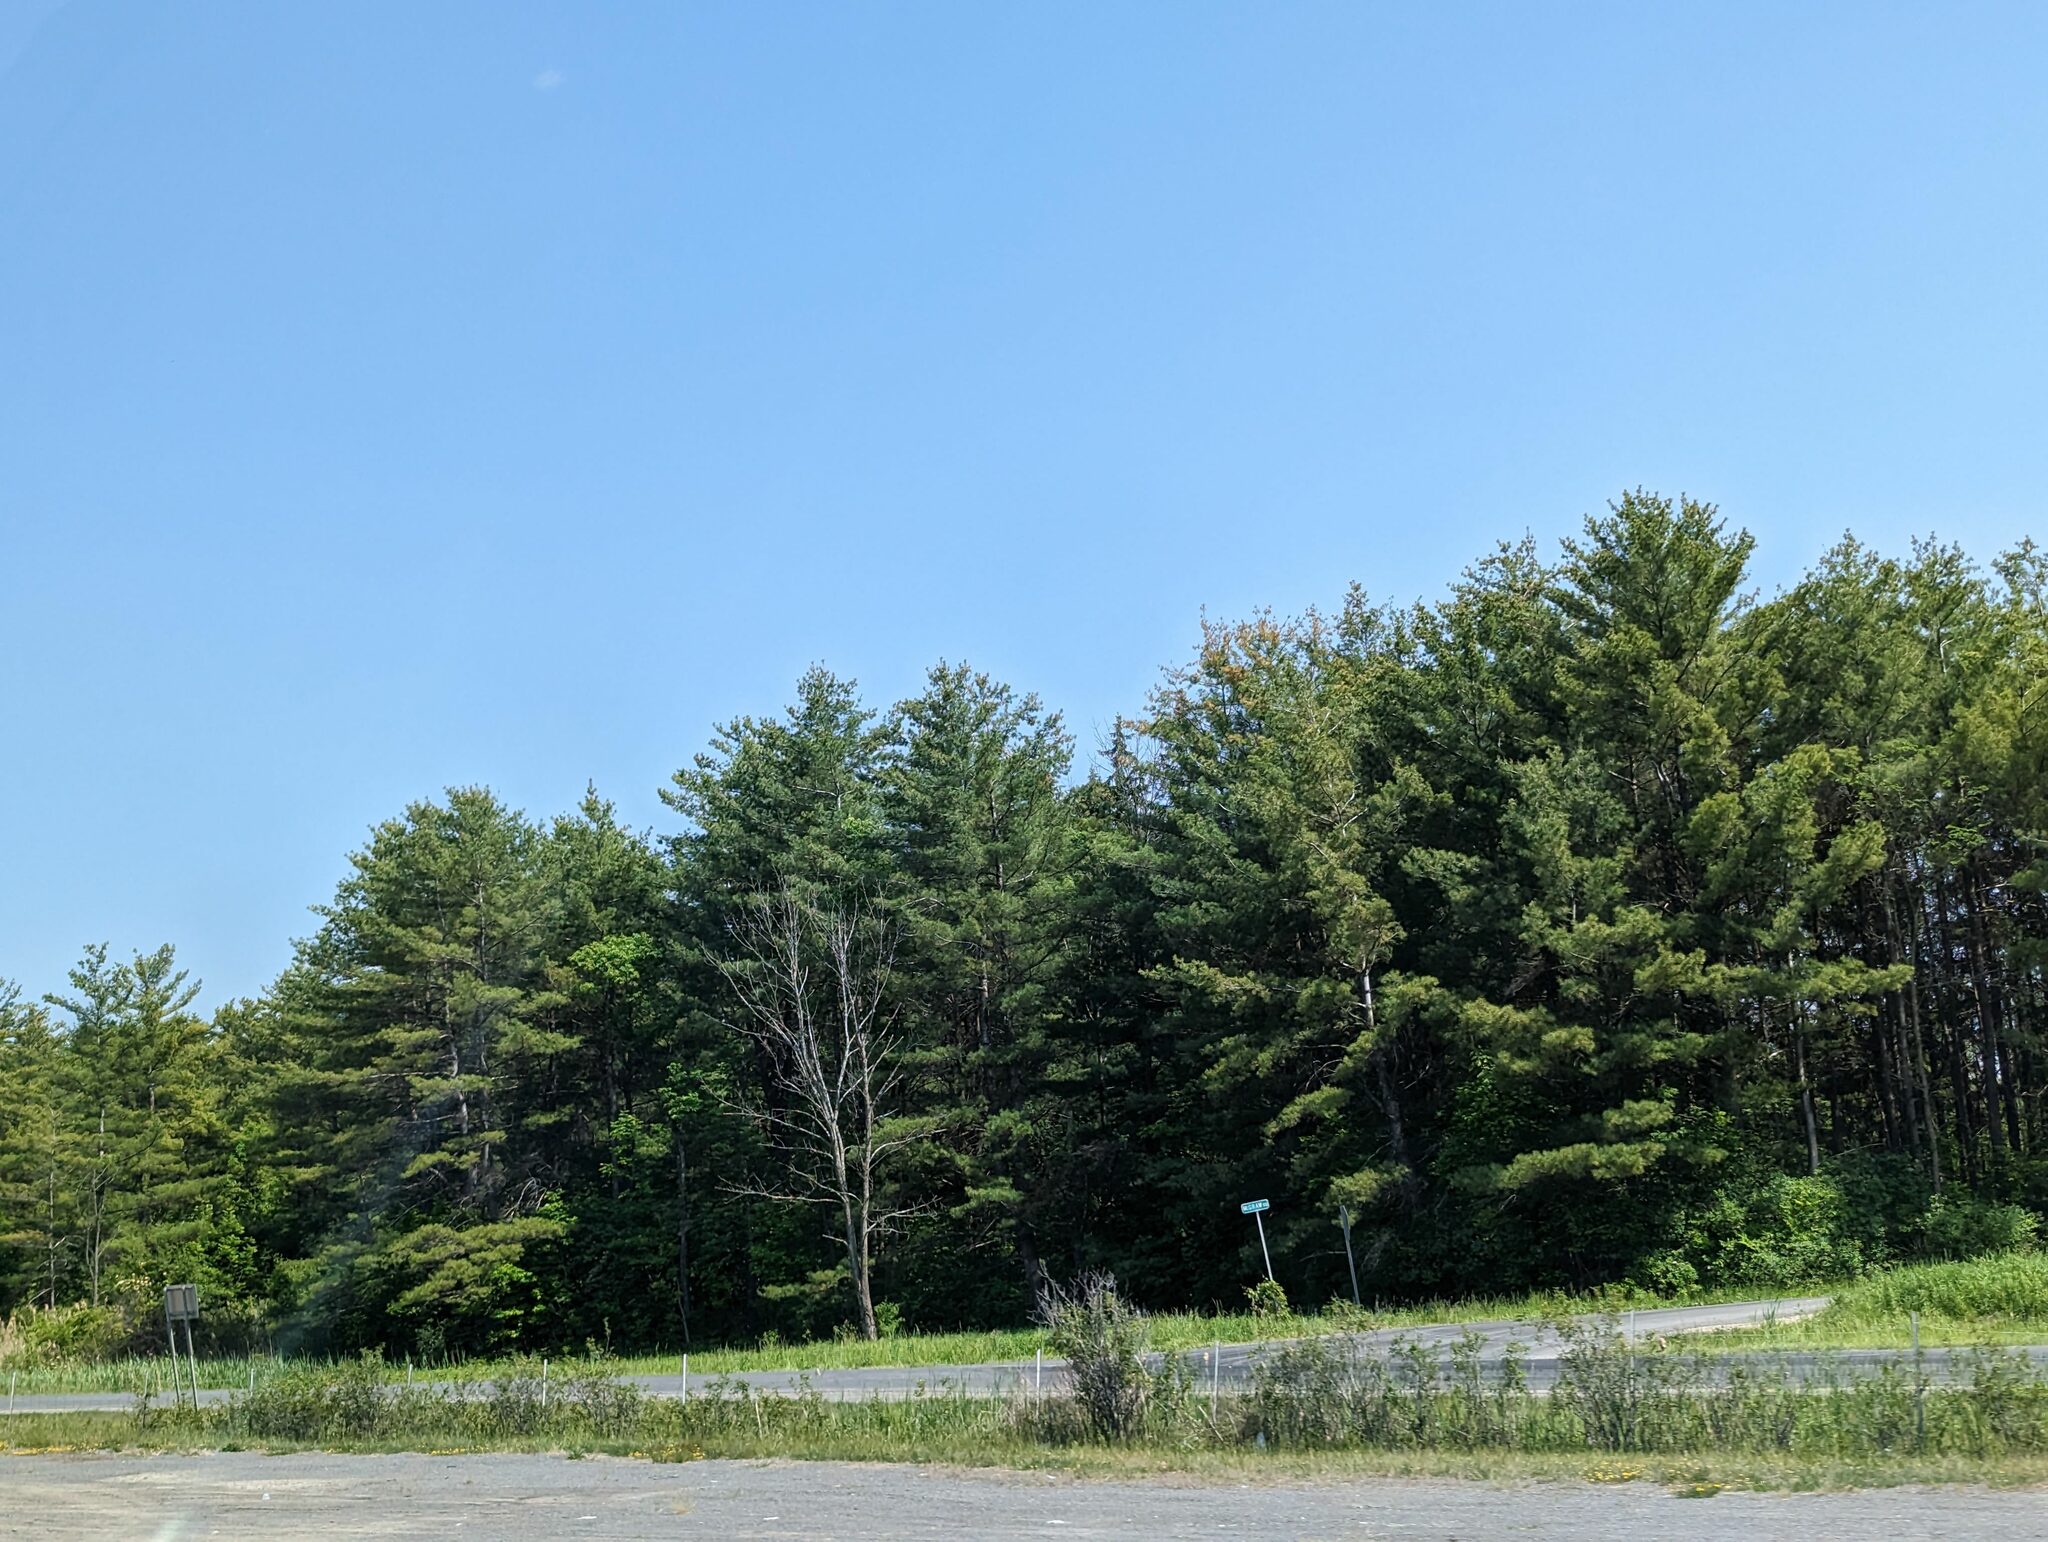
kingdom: Plantae
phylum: Tracheophyta
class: Pinopsida
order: Pinales
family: Pinaceae
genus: Pinus
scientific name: Pinus strobus
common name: Weymouth pine
